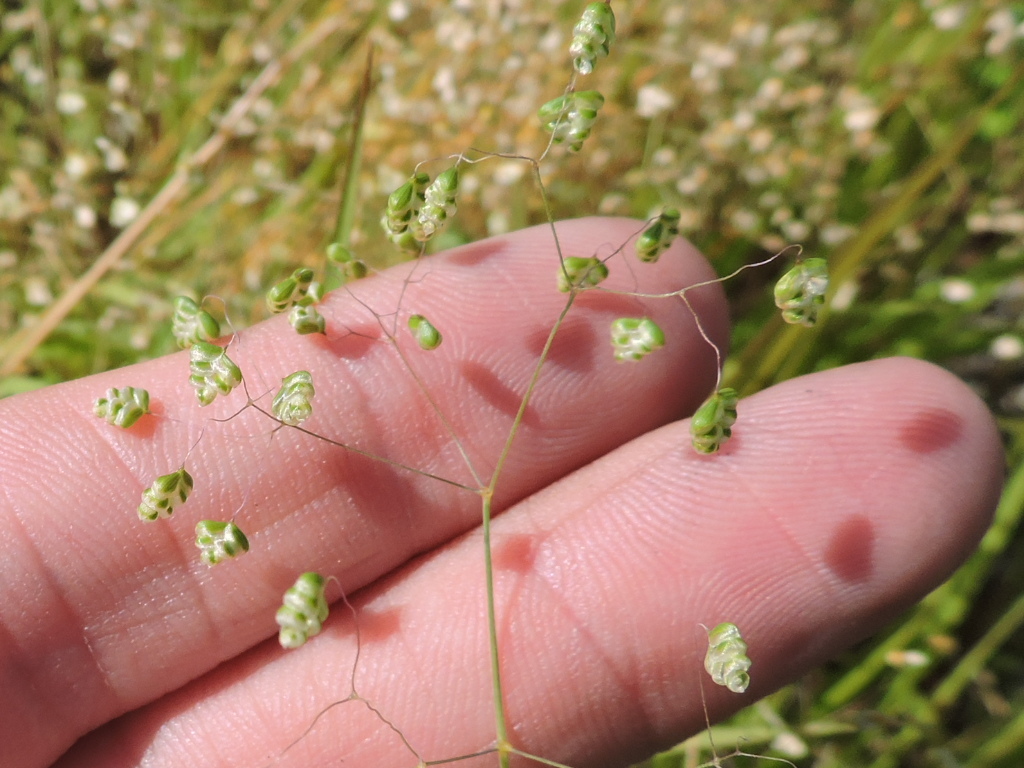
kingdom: Plantae
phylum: Tracheophyta
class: Liliopsida
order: Poales
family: Poaceae
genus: Briza
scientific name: Briza minor
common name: Lesser quaking-grass
